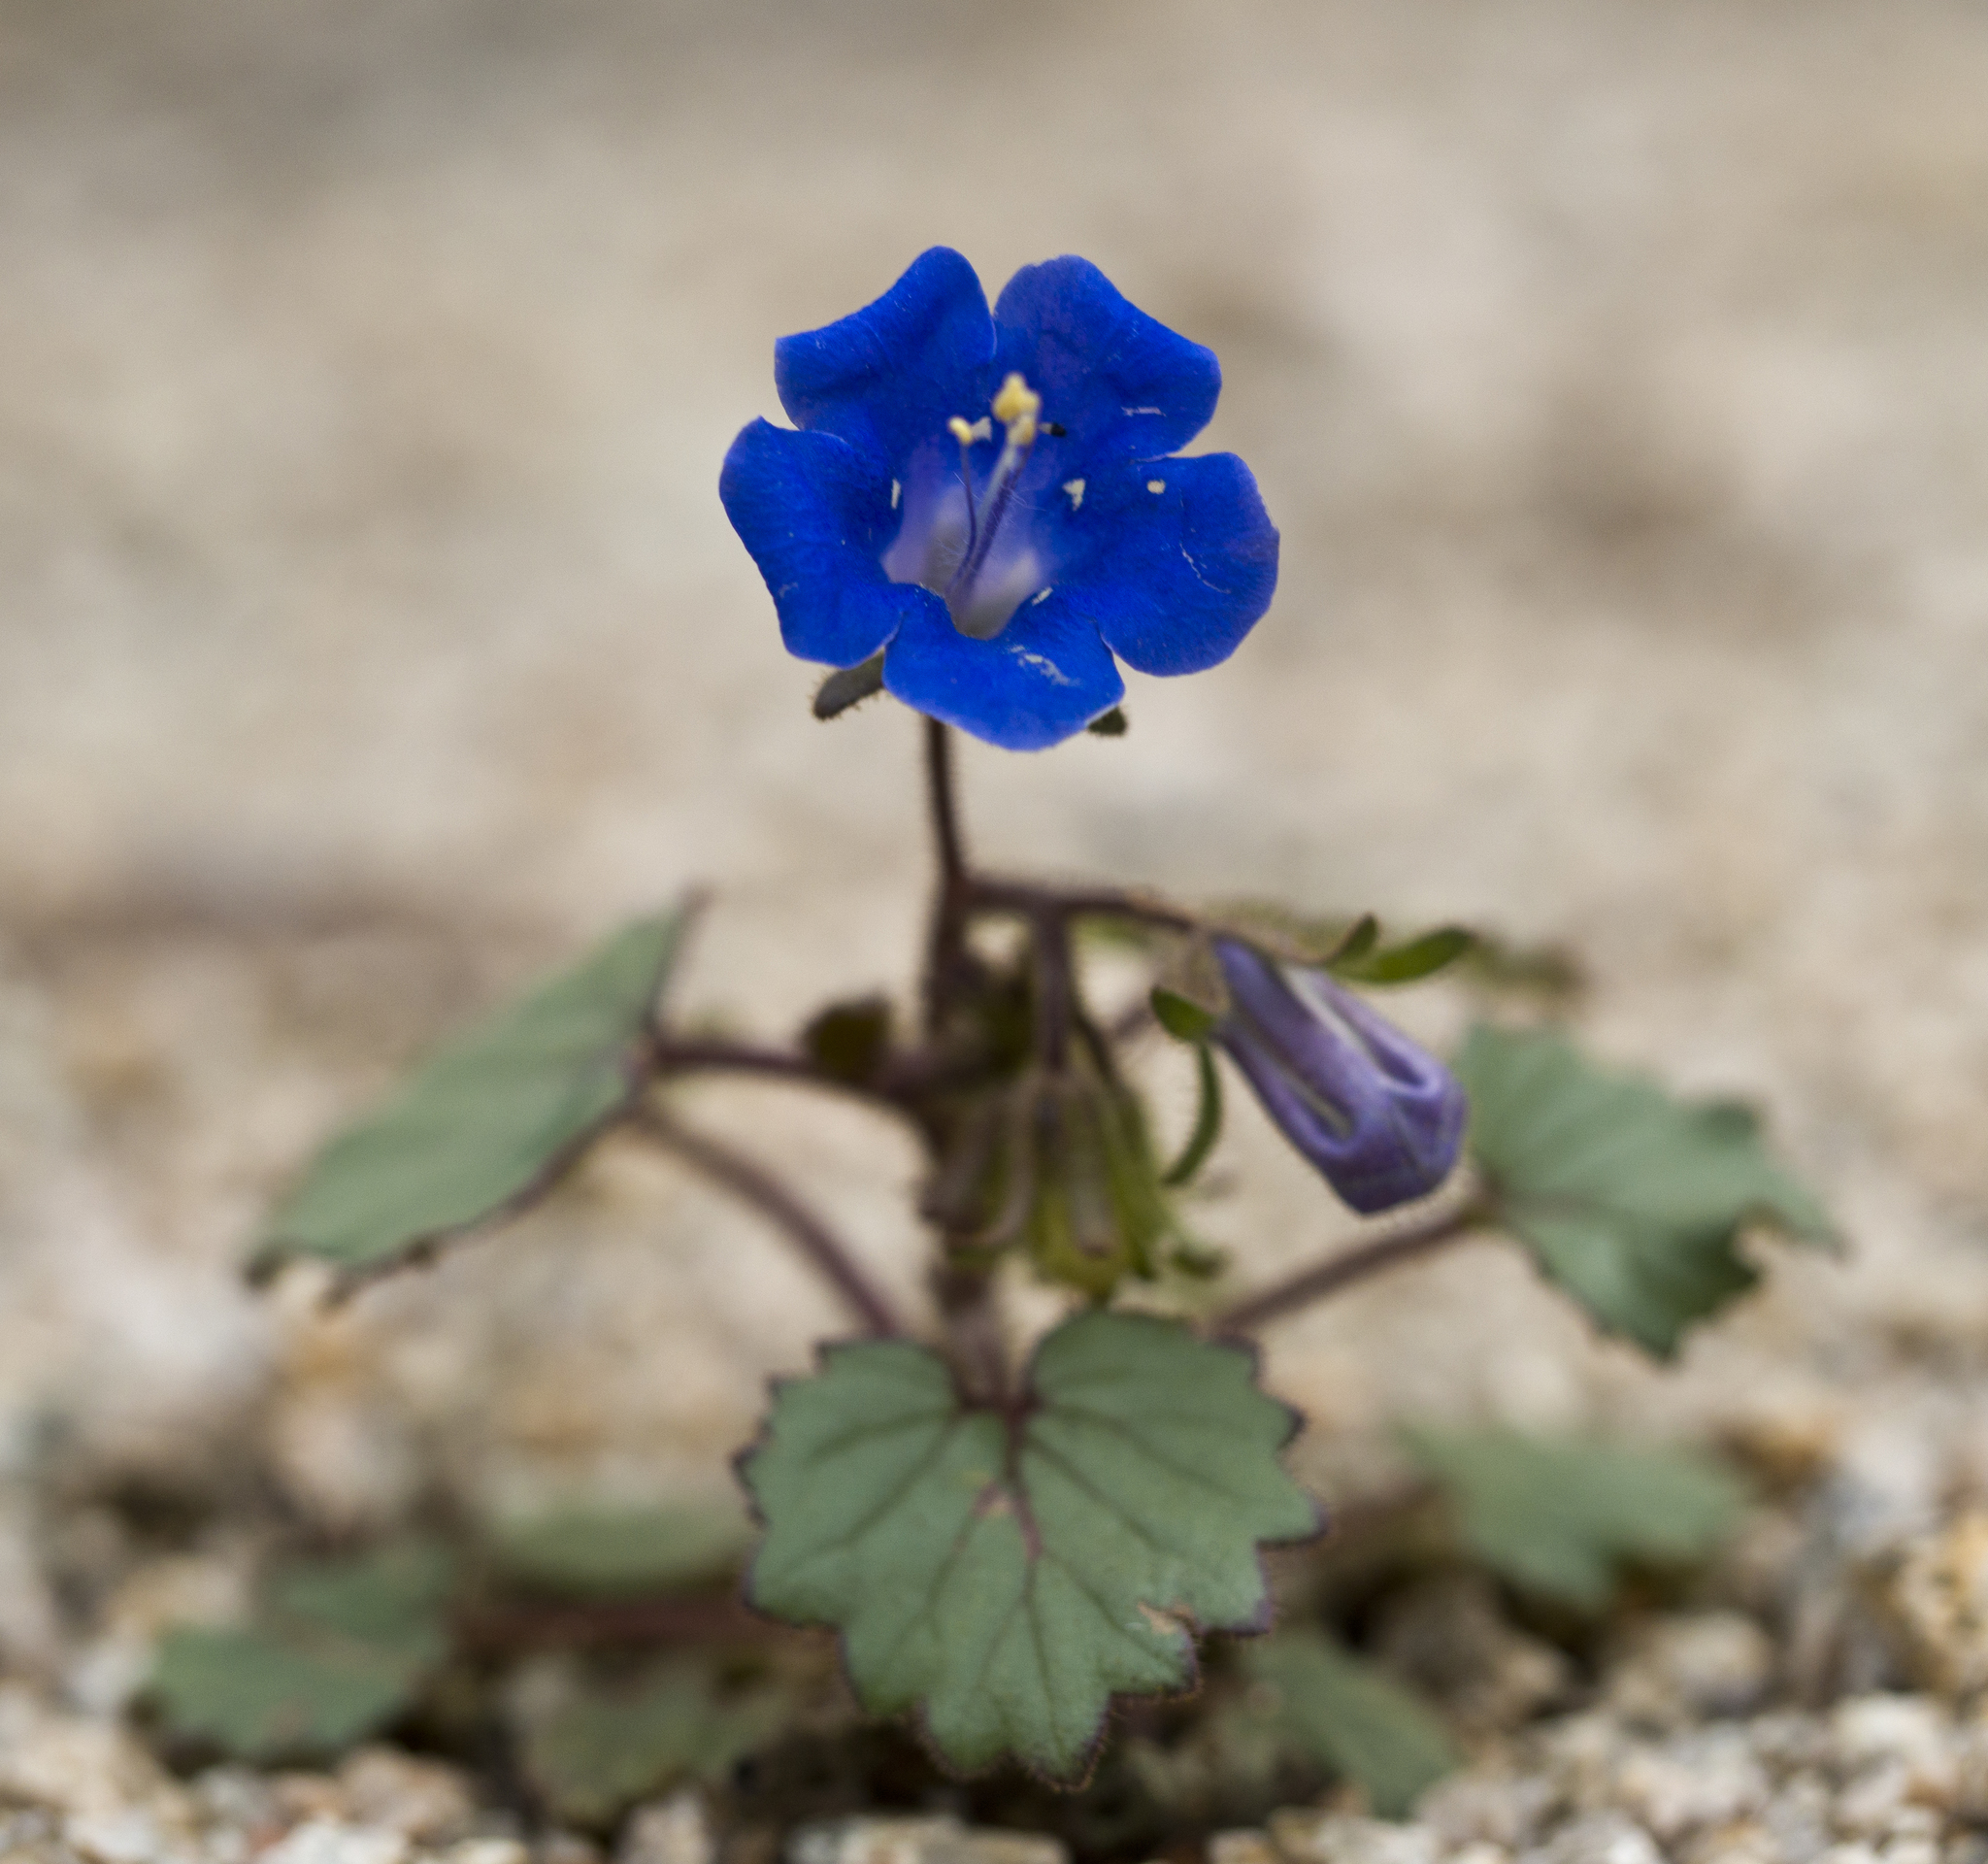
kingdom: Plantae
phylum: Tracheophyta
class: Magnoliopsida
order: Boraginales
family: Hydrophyllaceae
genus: Phacelia
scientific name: Phacelia campanularia
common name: California bluebell
